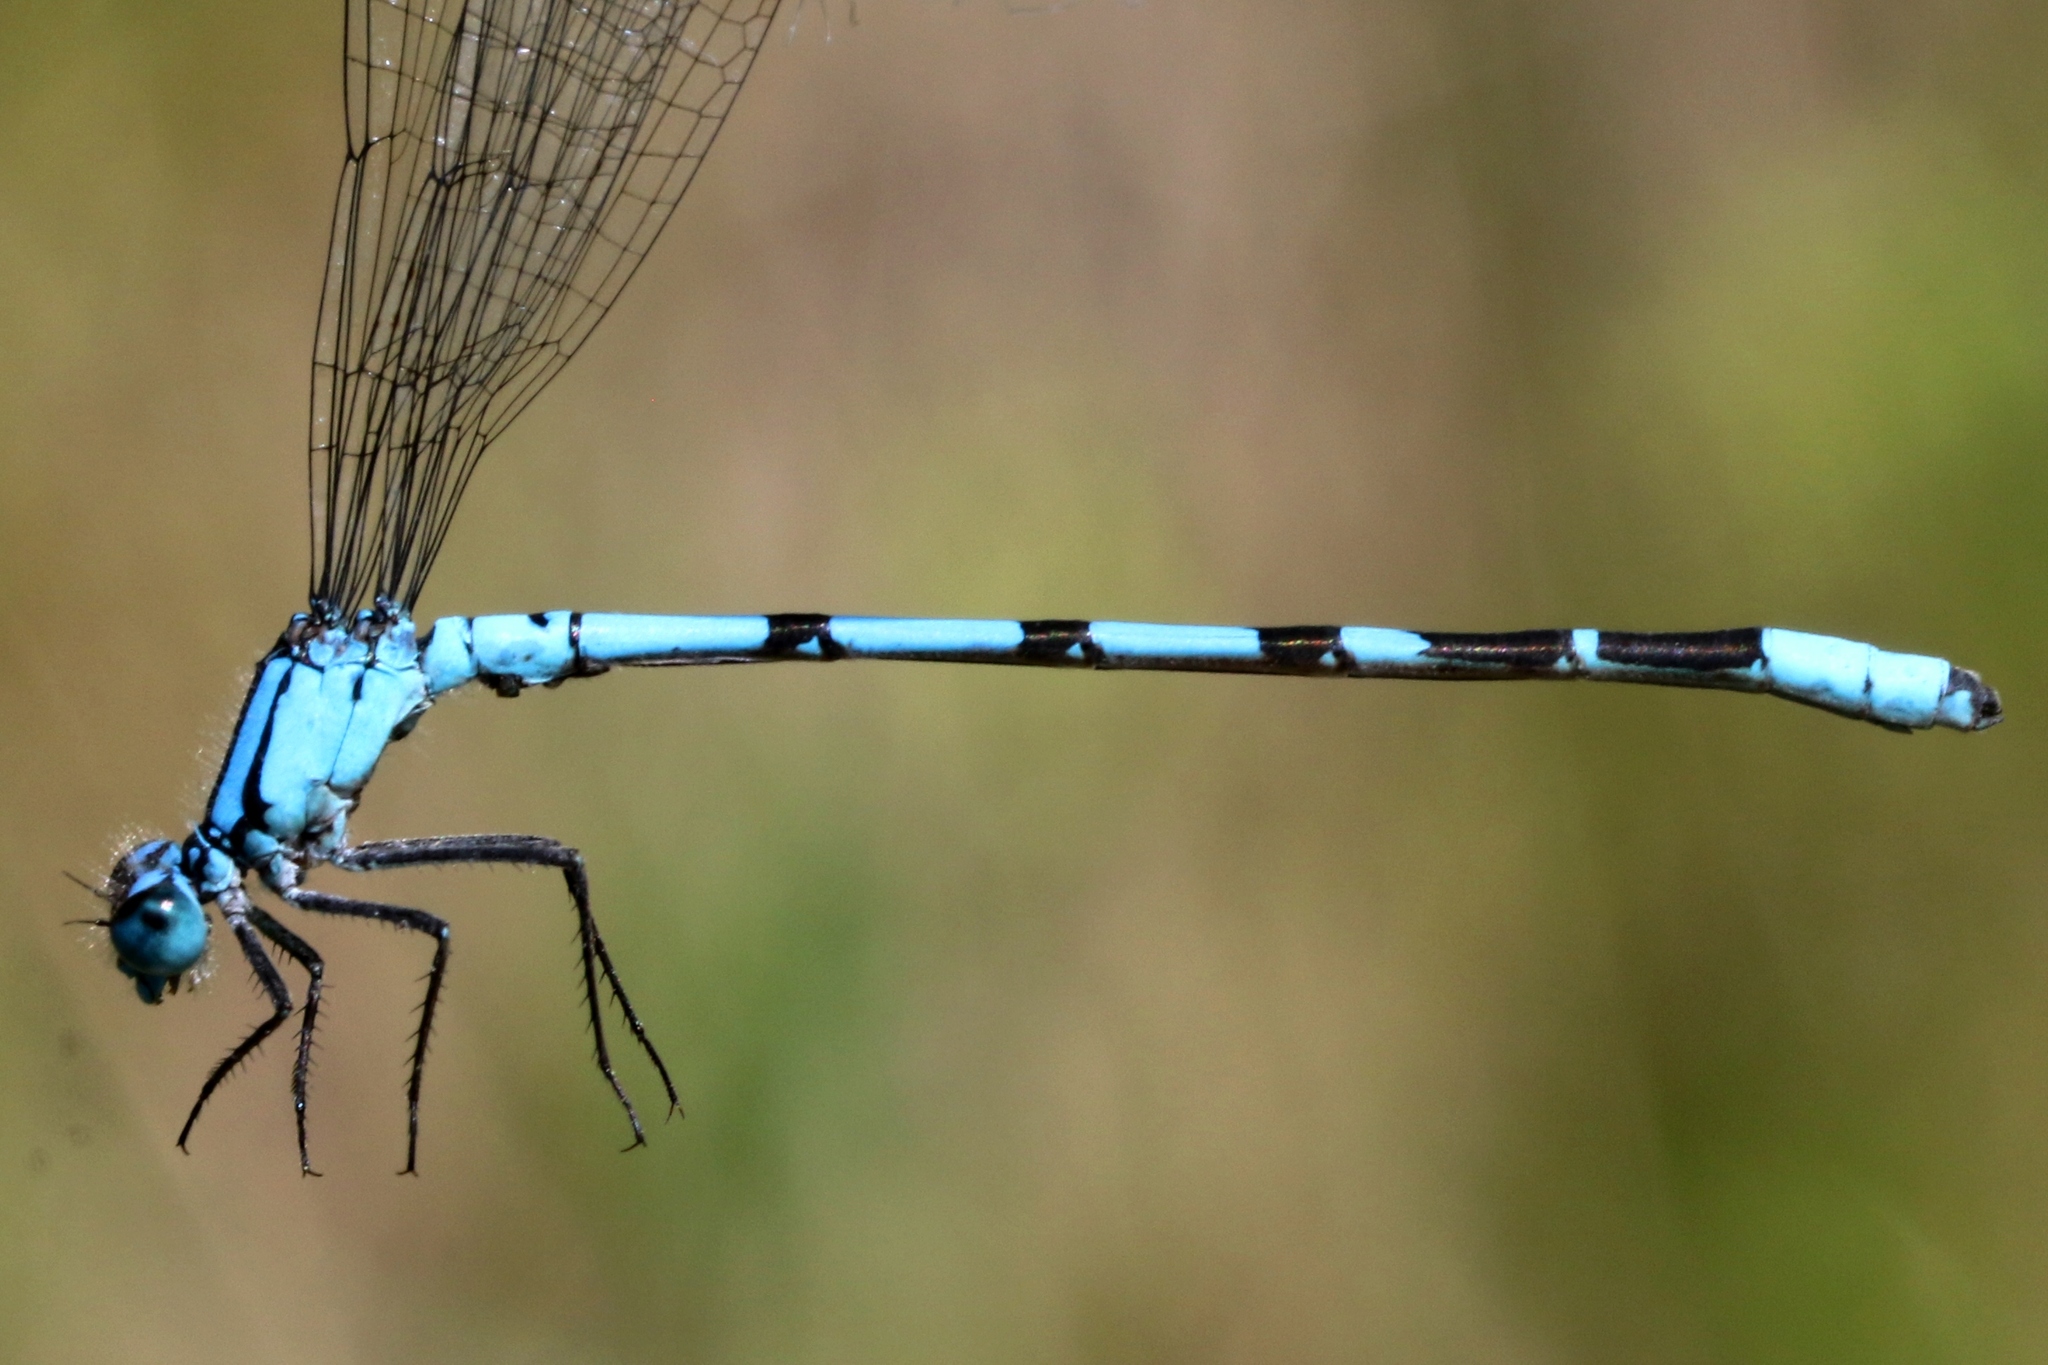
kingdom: Animalia
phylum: Arthropoda
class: Insecta
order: Odonata
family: Coenagrionidae
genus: Enallagma
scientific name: Enallagma boreale
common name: Boreal bluet
